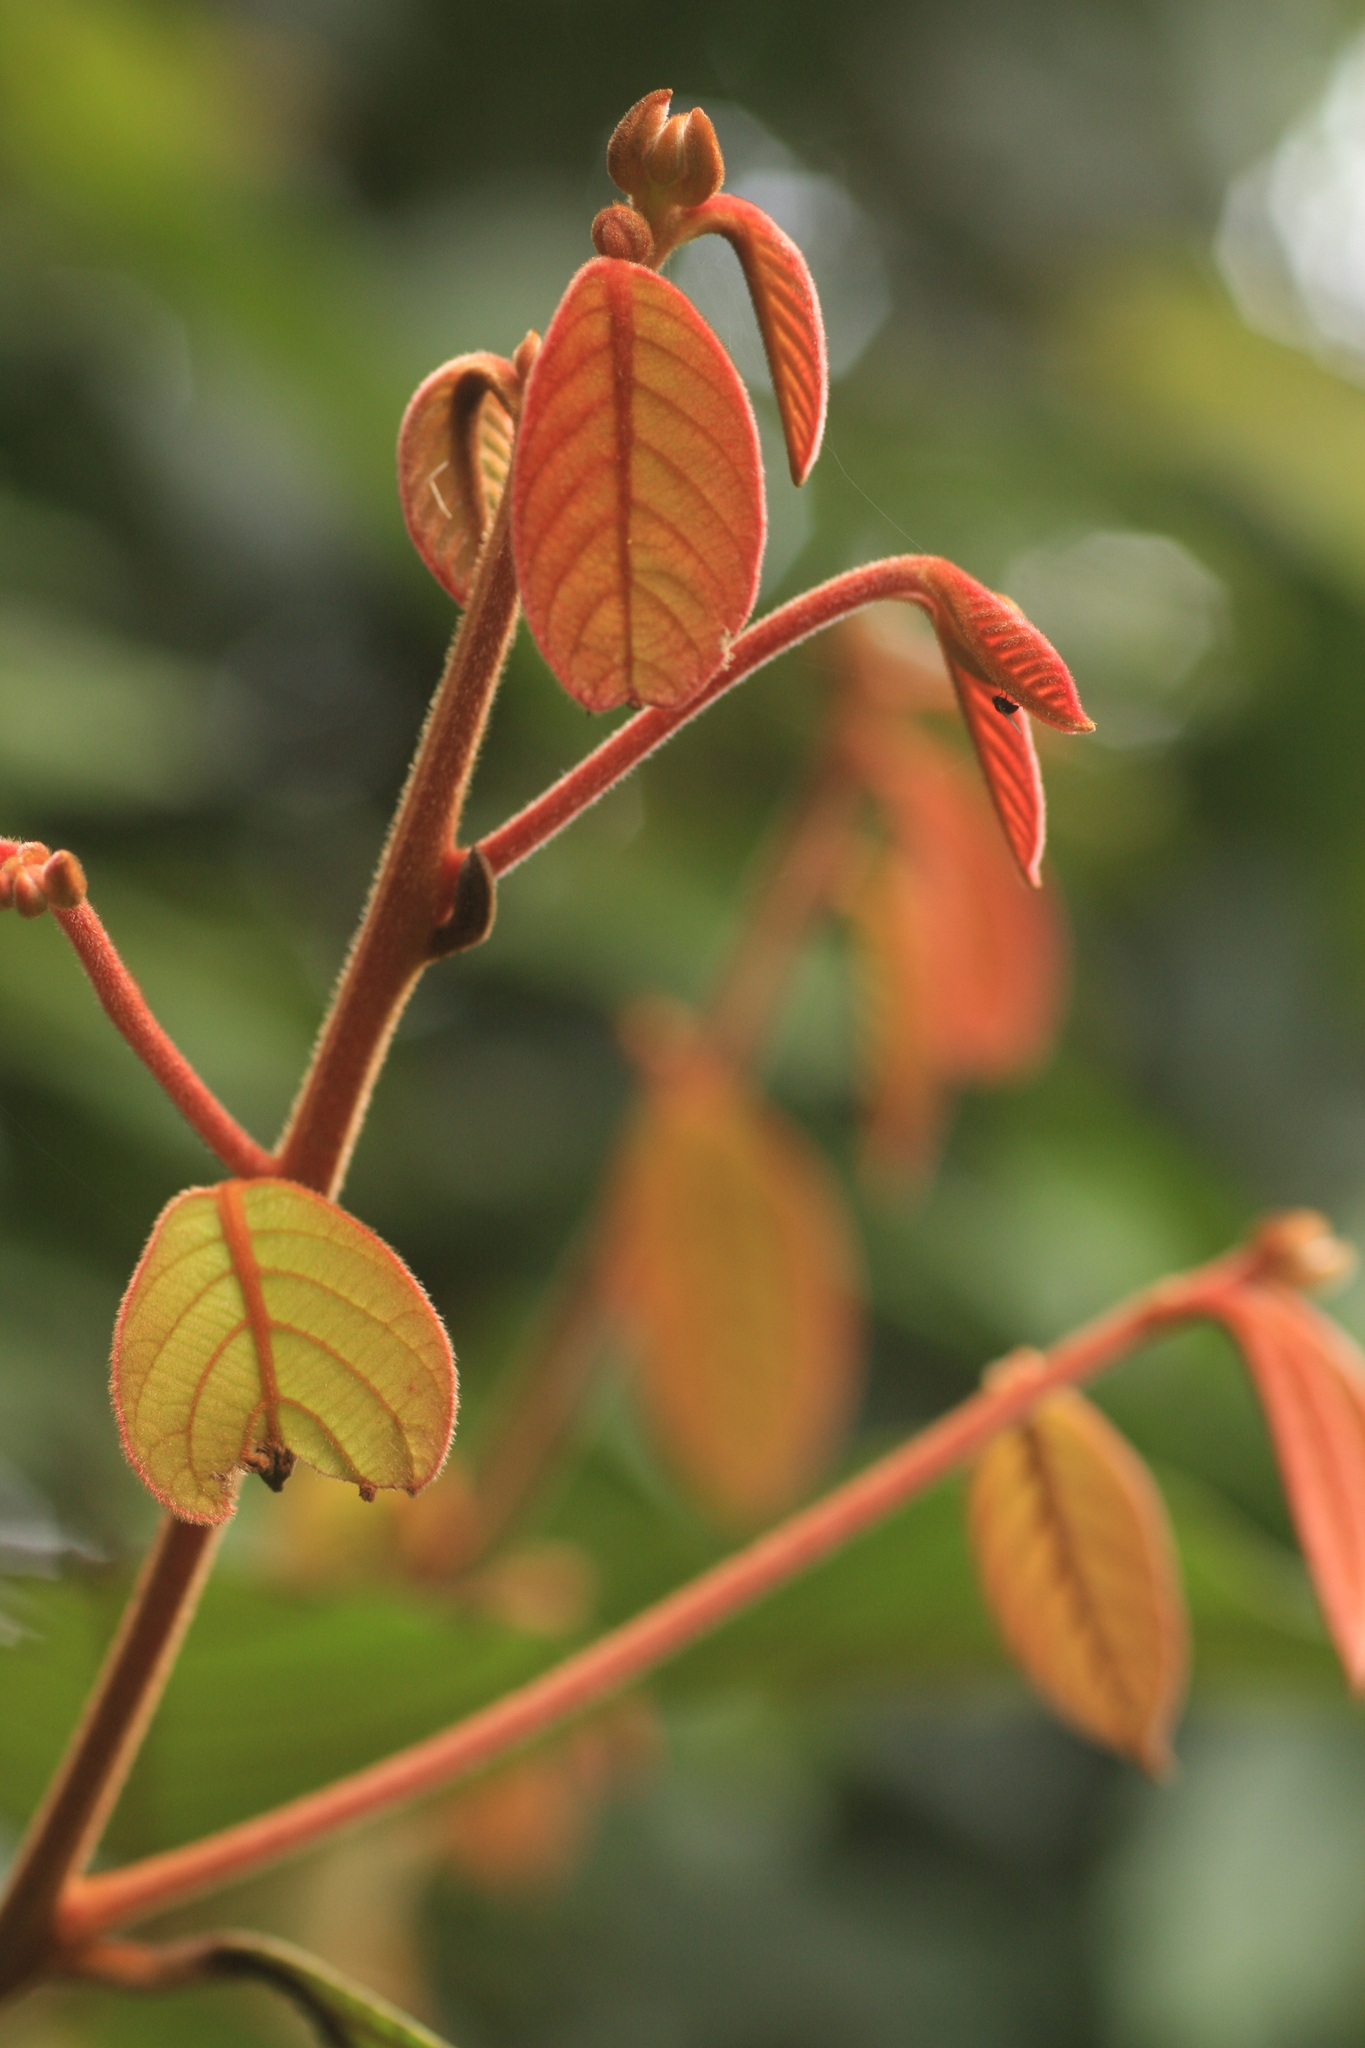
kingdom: Plantae
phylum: Tracheophyta
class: Magnoliopsida
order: Laurales
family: Lauraceae
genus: Cryptocarya
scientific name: Cryptocarya anamalayana
